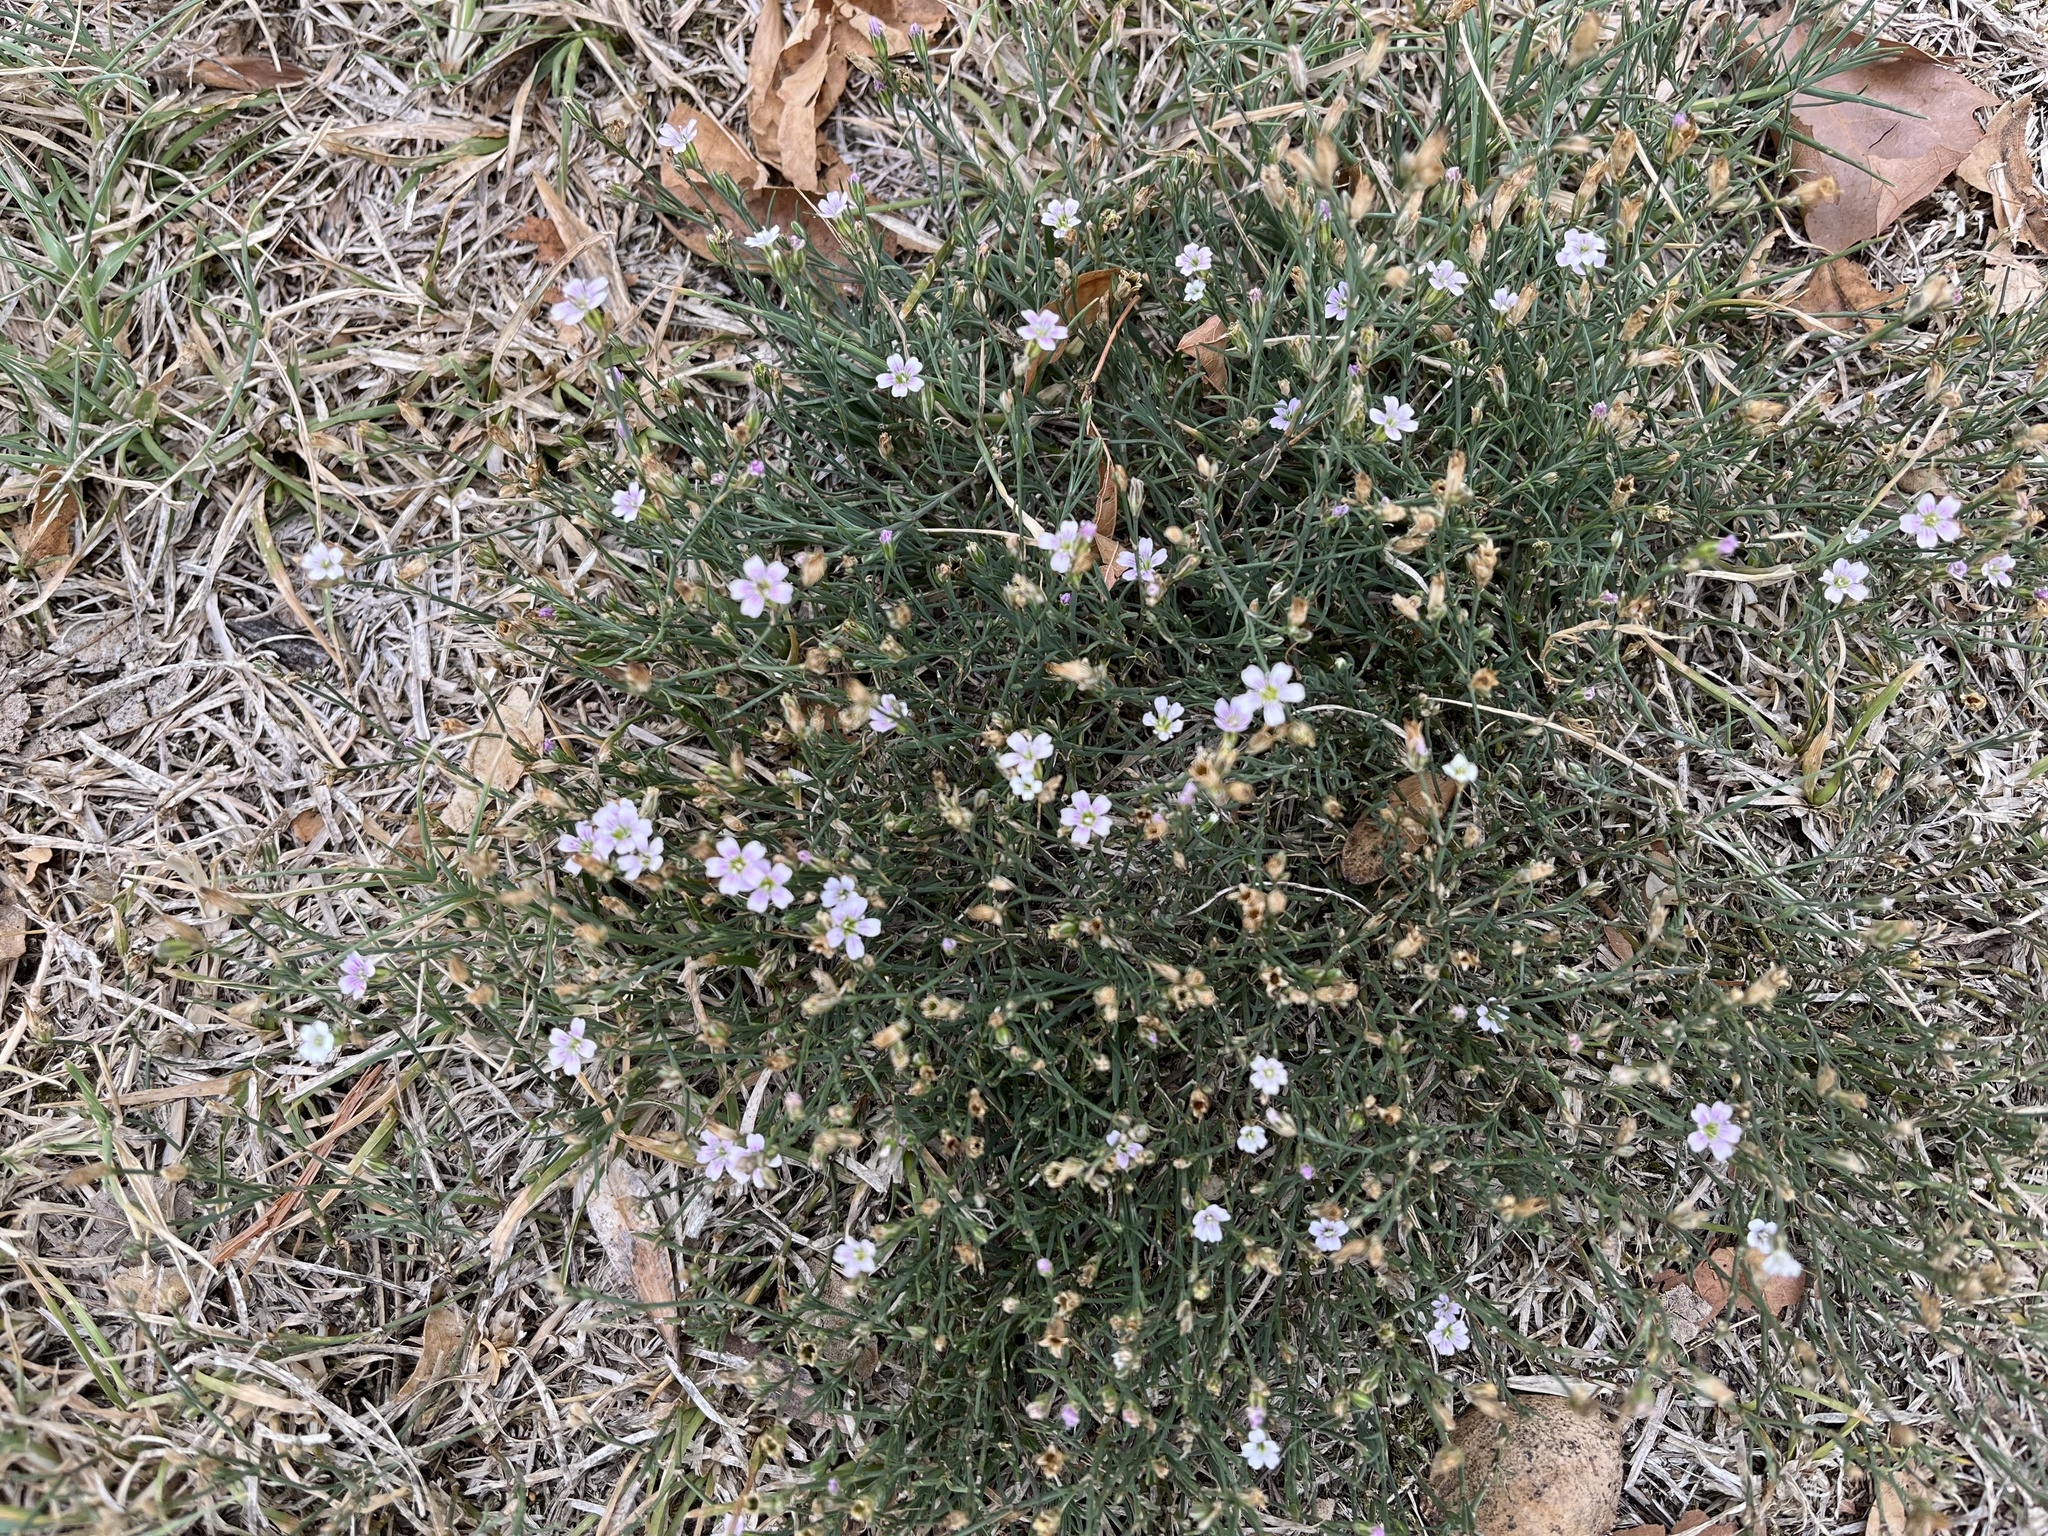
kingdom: Plantae
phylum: Tracheophyta
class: Magnoliopsida
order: Caryophyllales
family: Caryophyllaceae
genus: Petrorhagia
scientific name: Petrorhagia saxifraga
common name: Tunicflower
